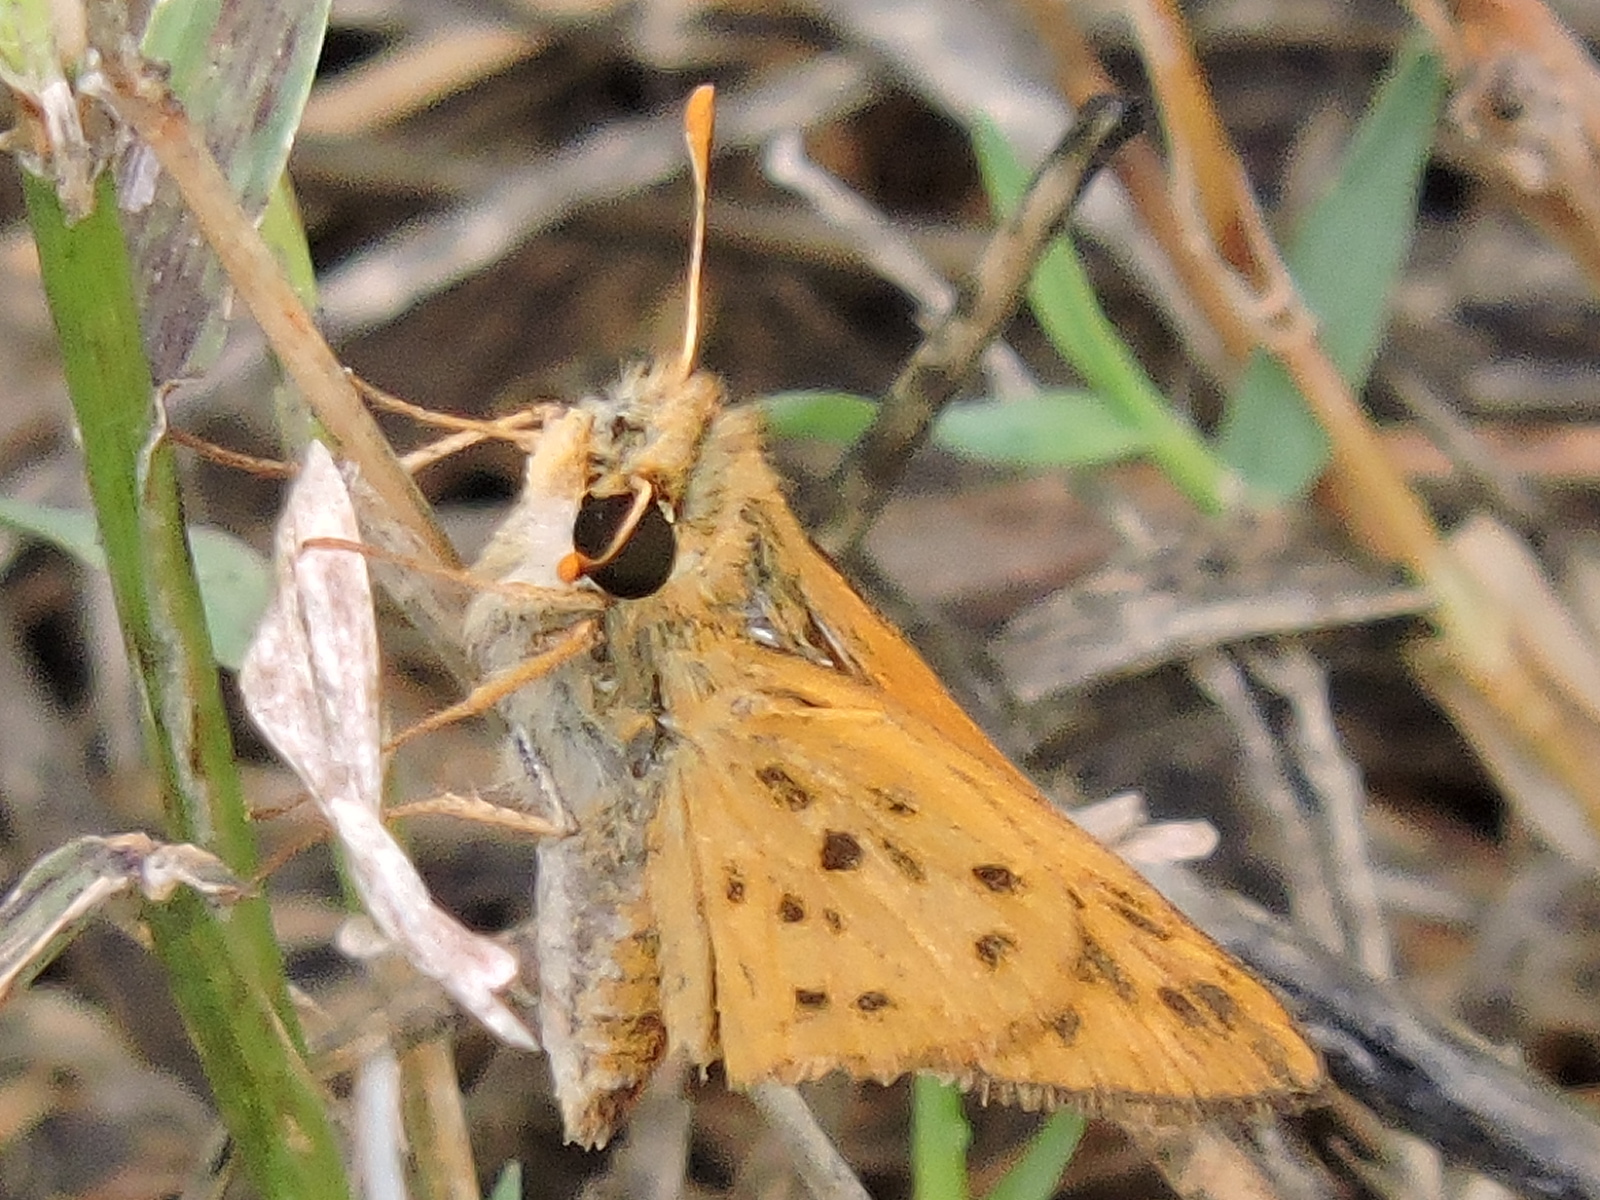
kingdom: Animalia
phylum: Arthropoda
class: Insecta
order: Lepidoptera
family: Hesperiidae
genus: Hylephila
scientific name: Hylephila phyleus
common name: Fiery skipper
